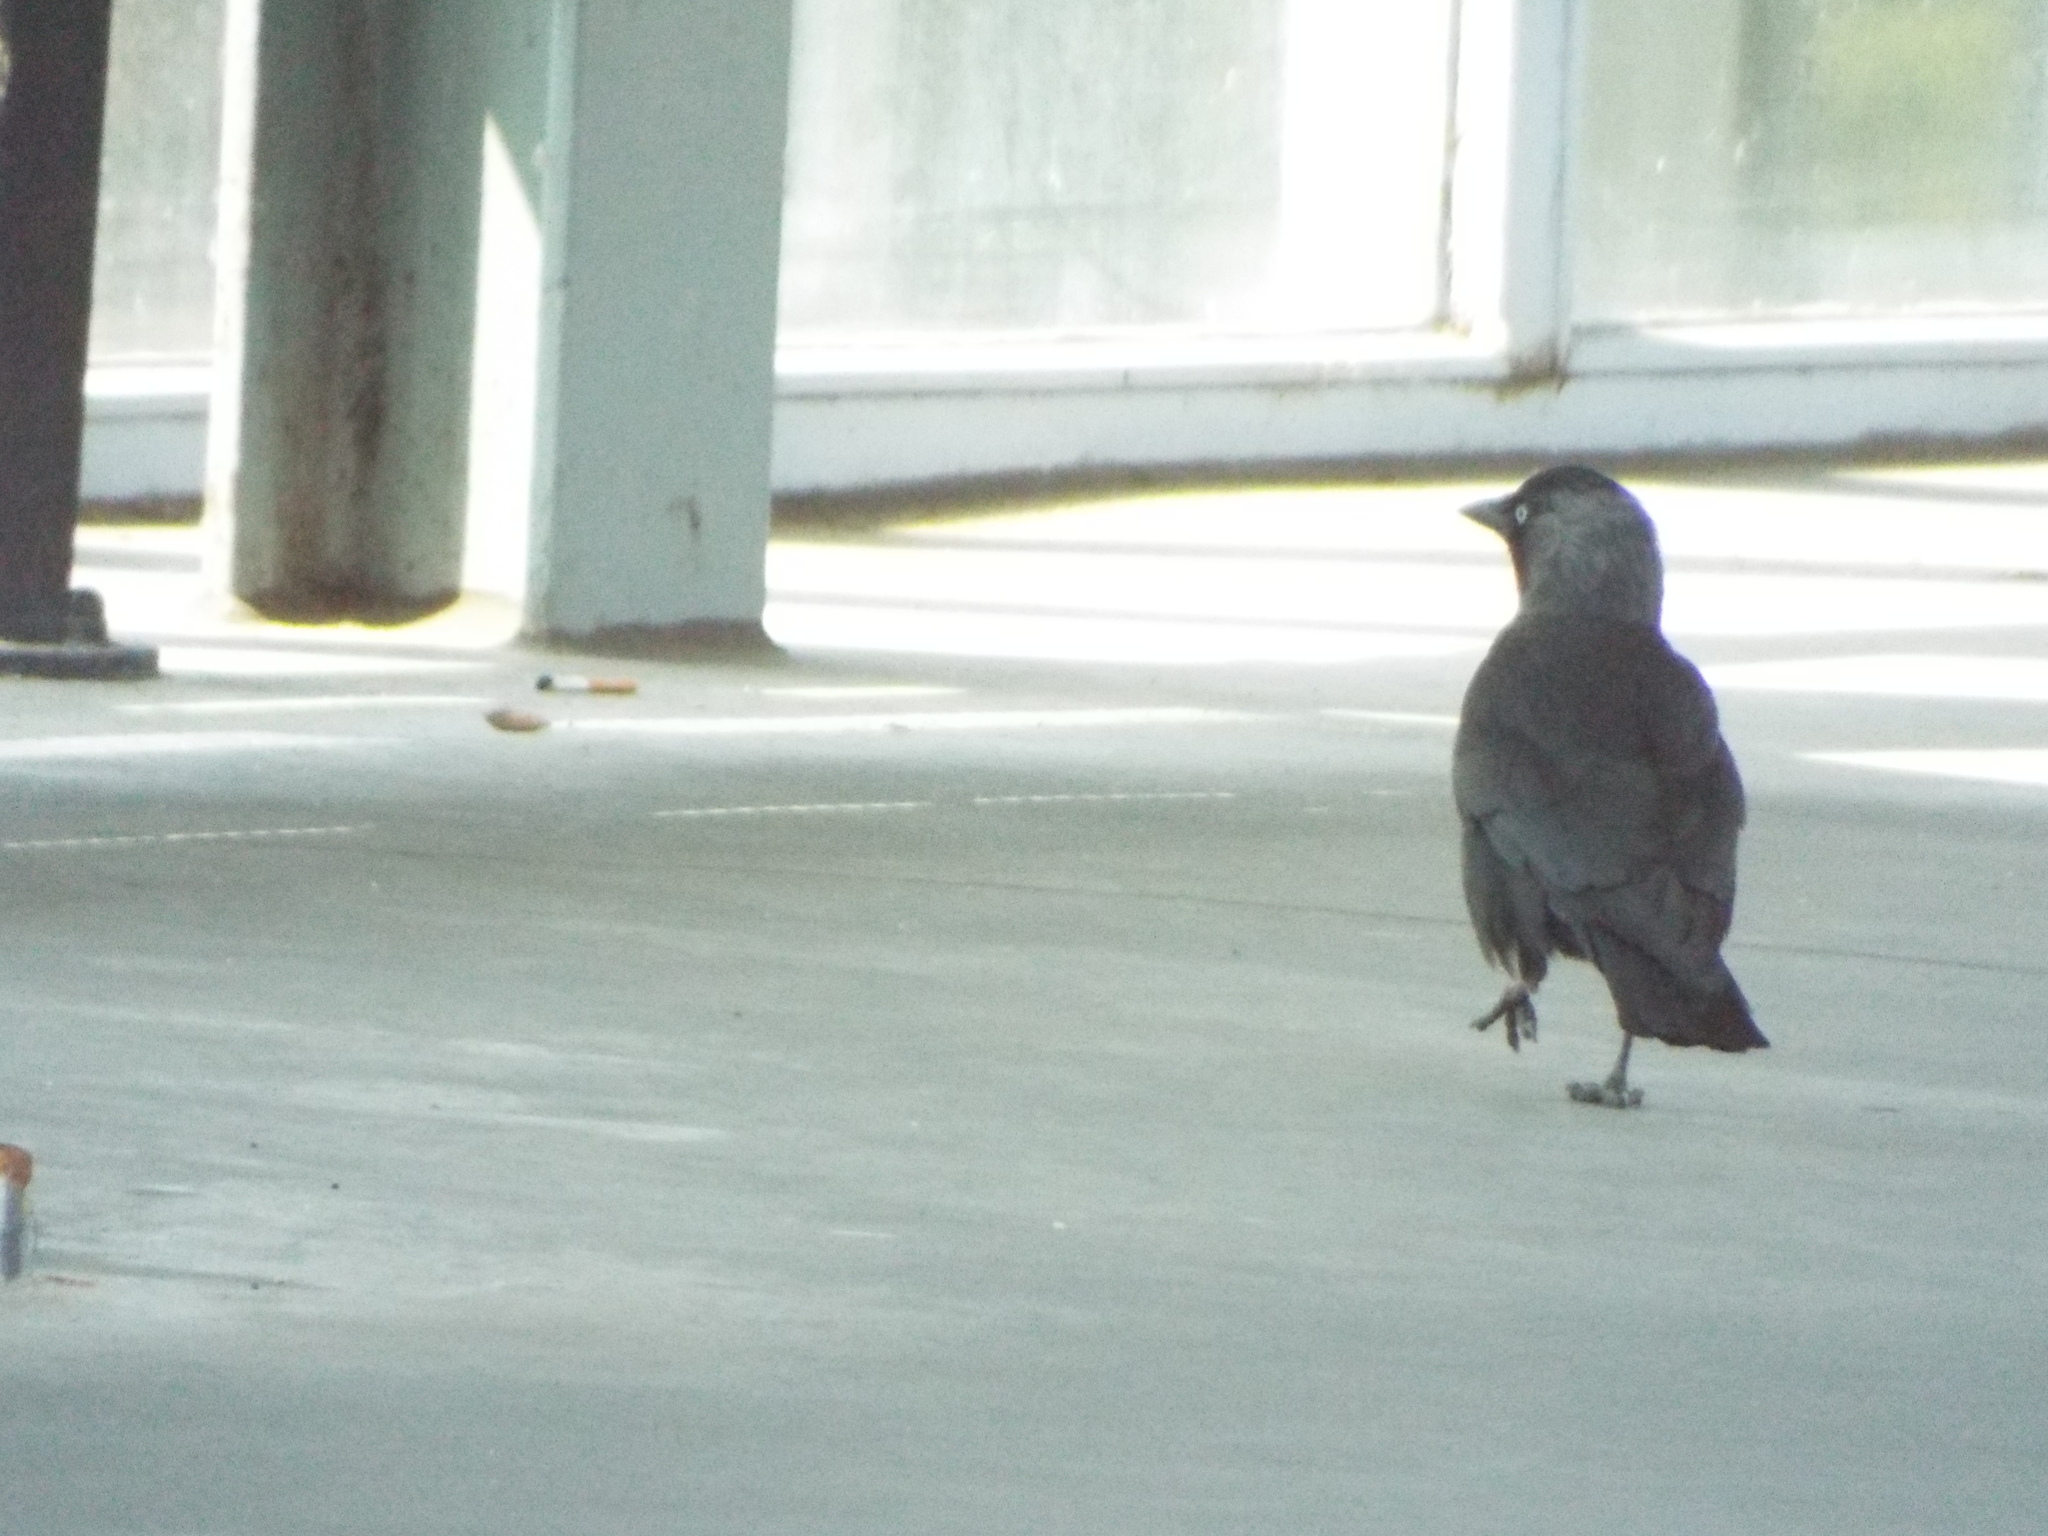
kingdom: Animalia
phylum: Chordata
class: Aves
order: Passeriformes
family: Corvidae
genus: Coloeus
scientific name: Coloeus monedula
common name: Western jackdaw
